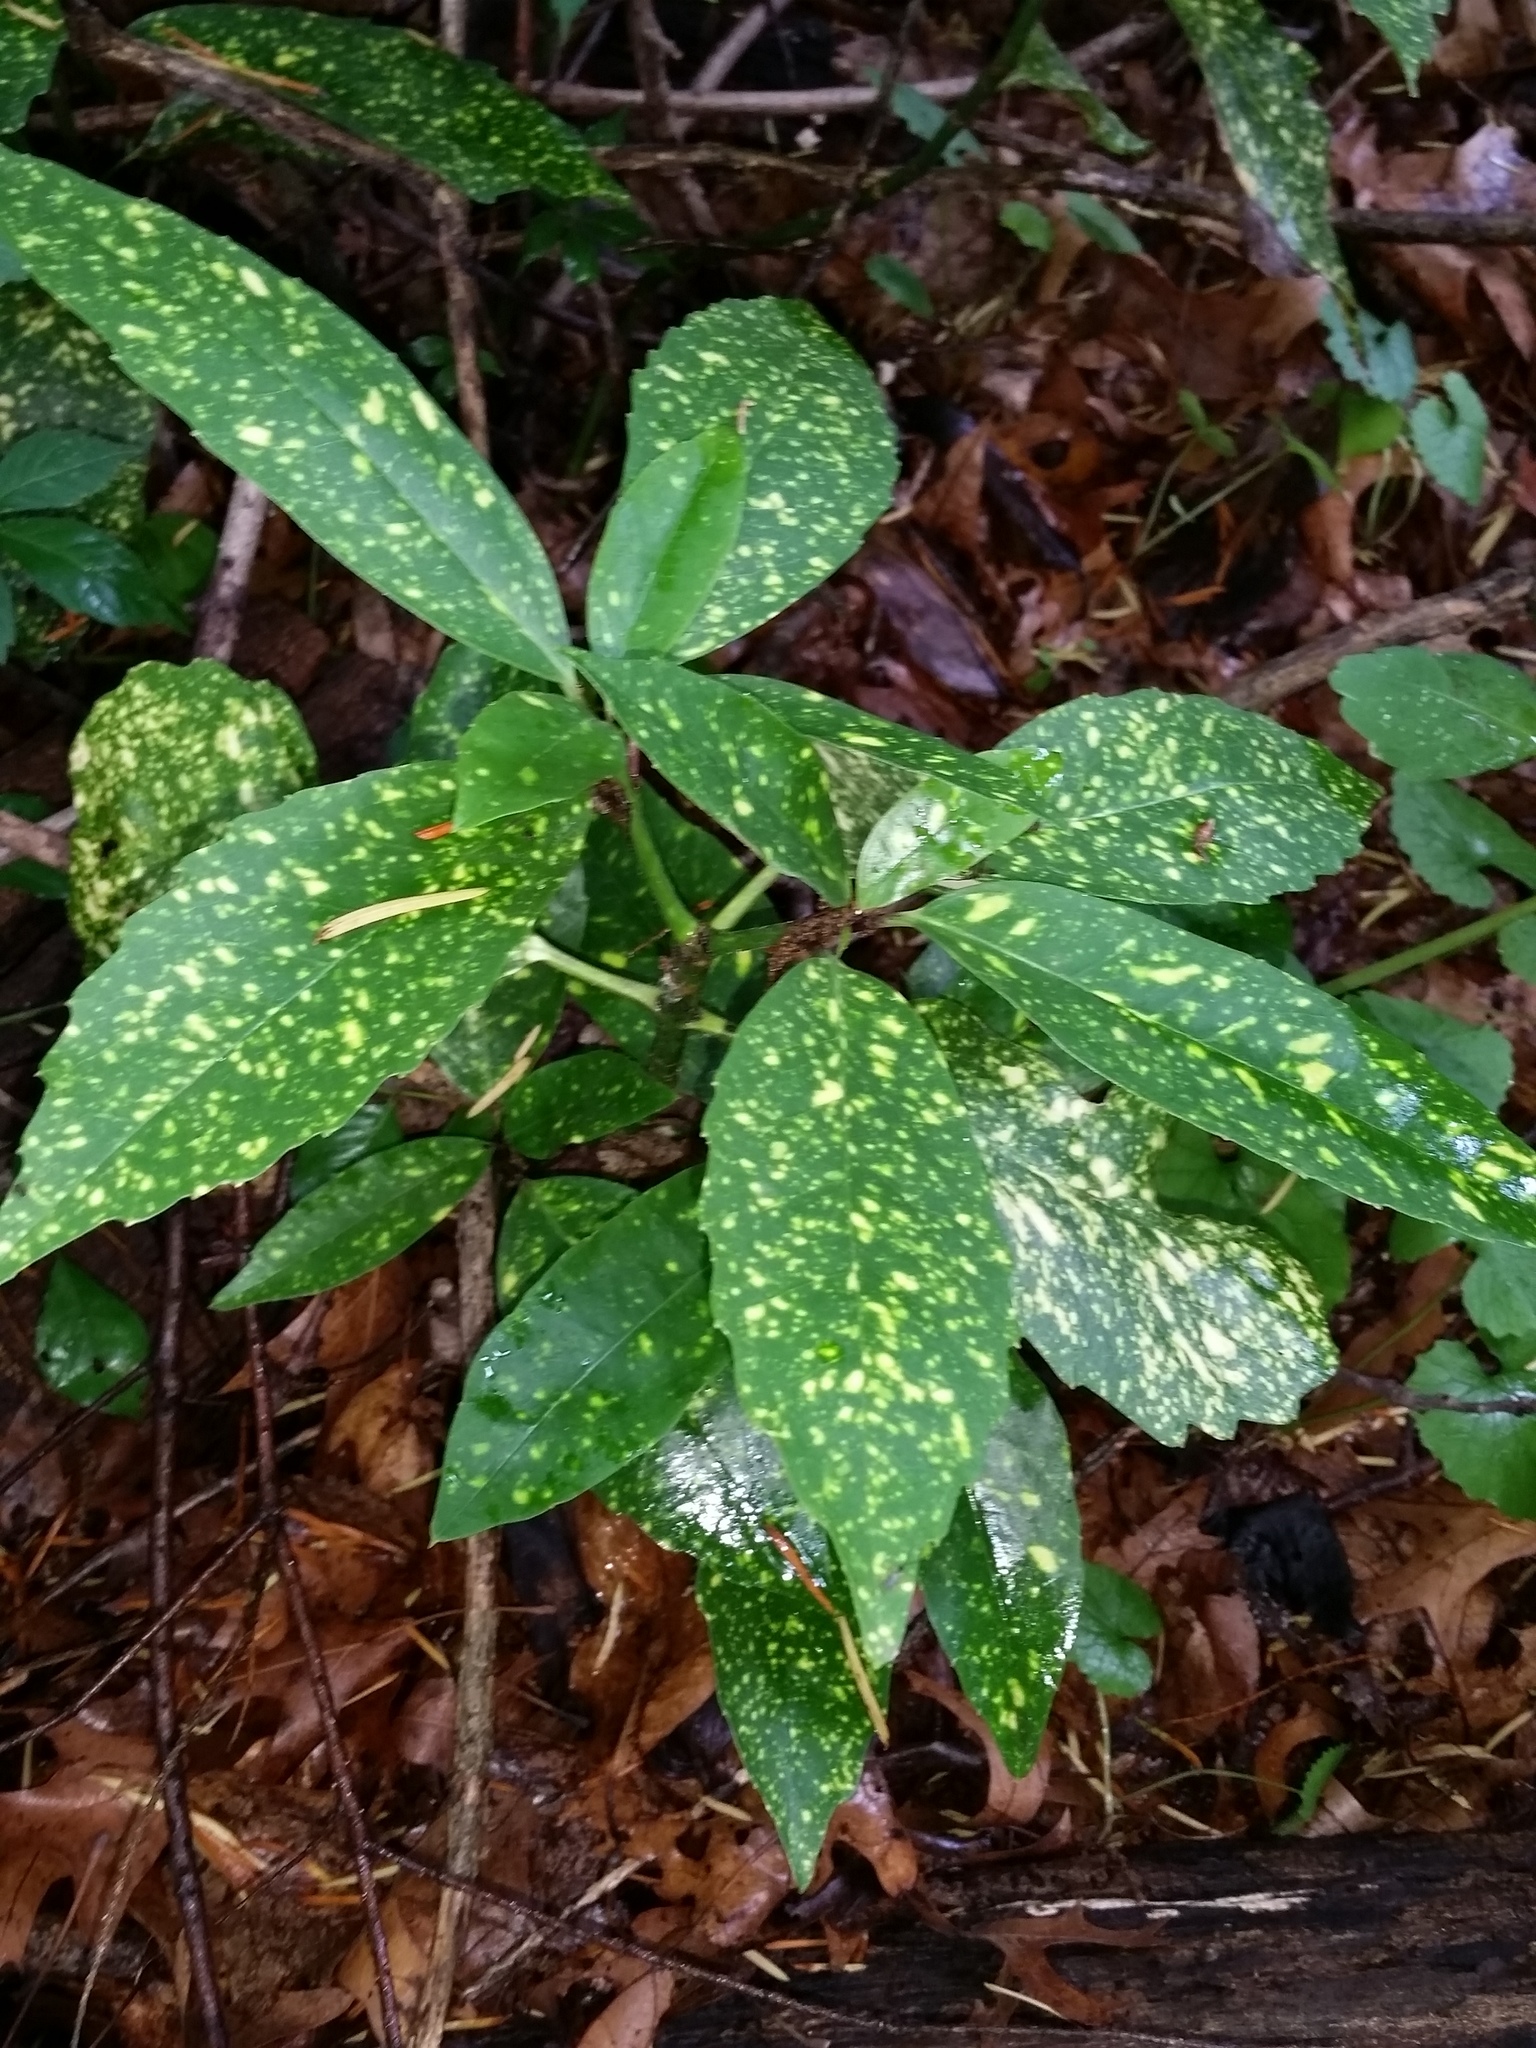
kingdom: Plantae
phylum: Tracheophyta
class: Magnoliopsida
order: Garryales
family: Garryaceae
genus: Aucuba
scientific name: Aucuba japonica
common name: Spotted-laurel
